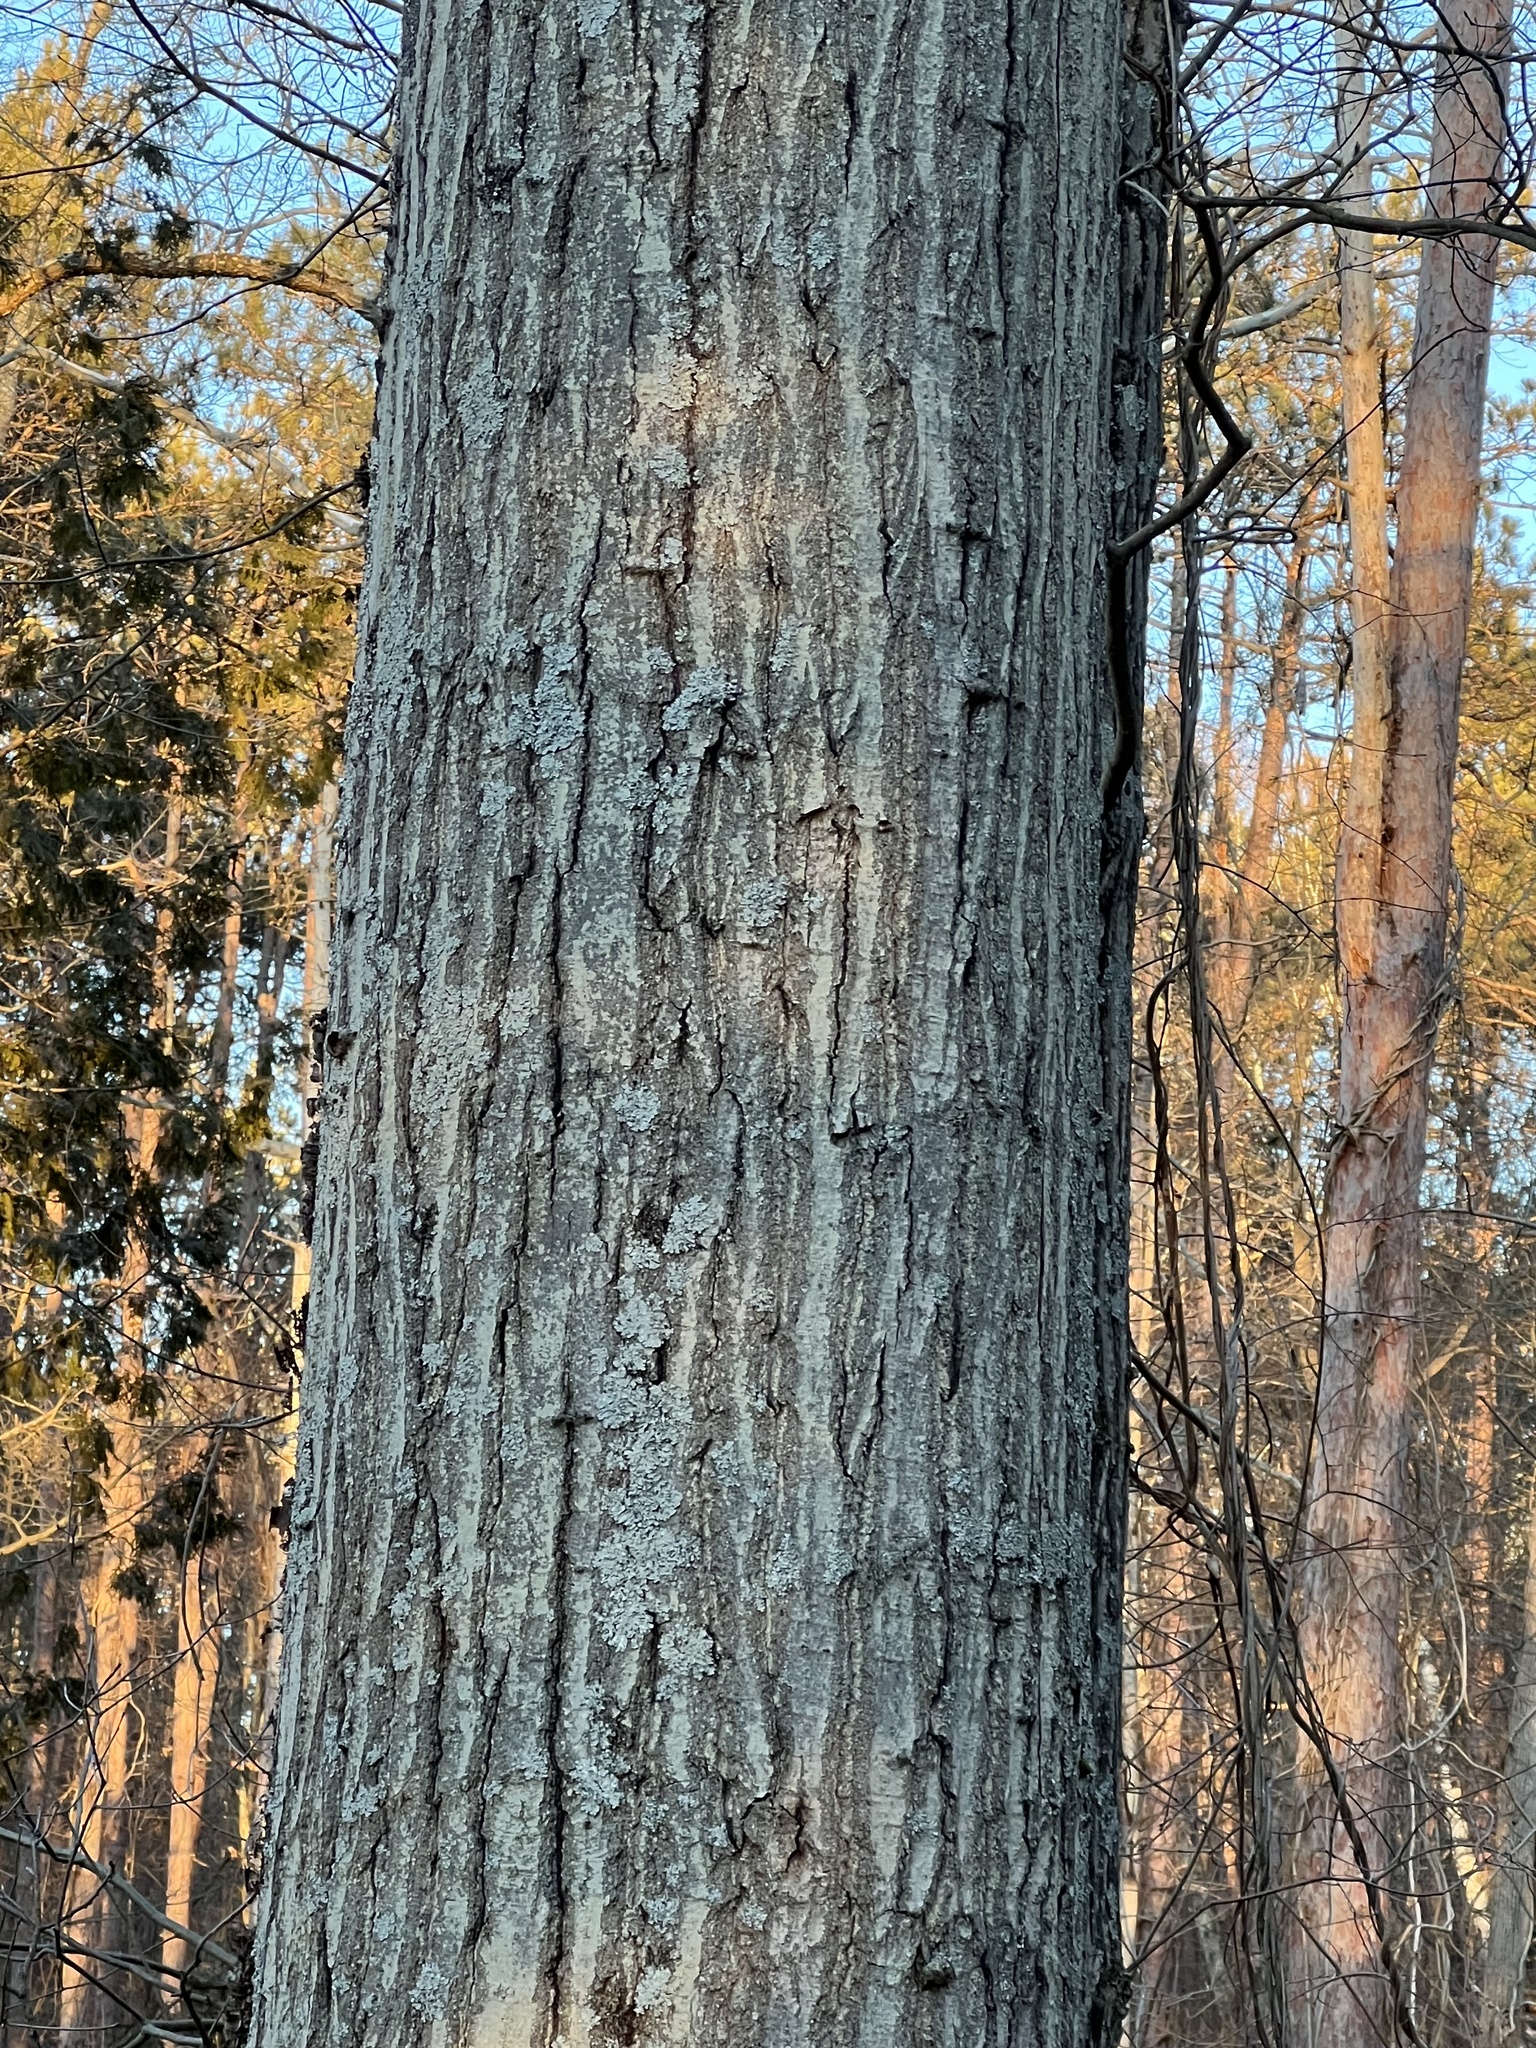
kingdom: Plantae
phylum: Tracheophyta
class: Magnoliopsida
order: Fagales
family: Fagaceae
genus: Quercus
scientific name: Quercus rubra
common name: Red oak
